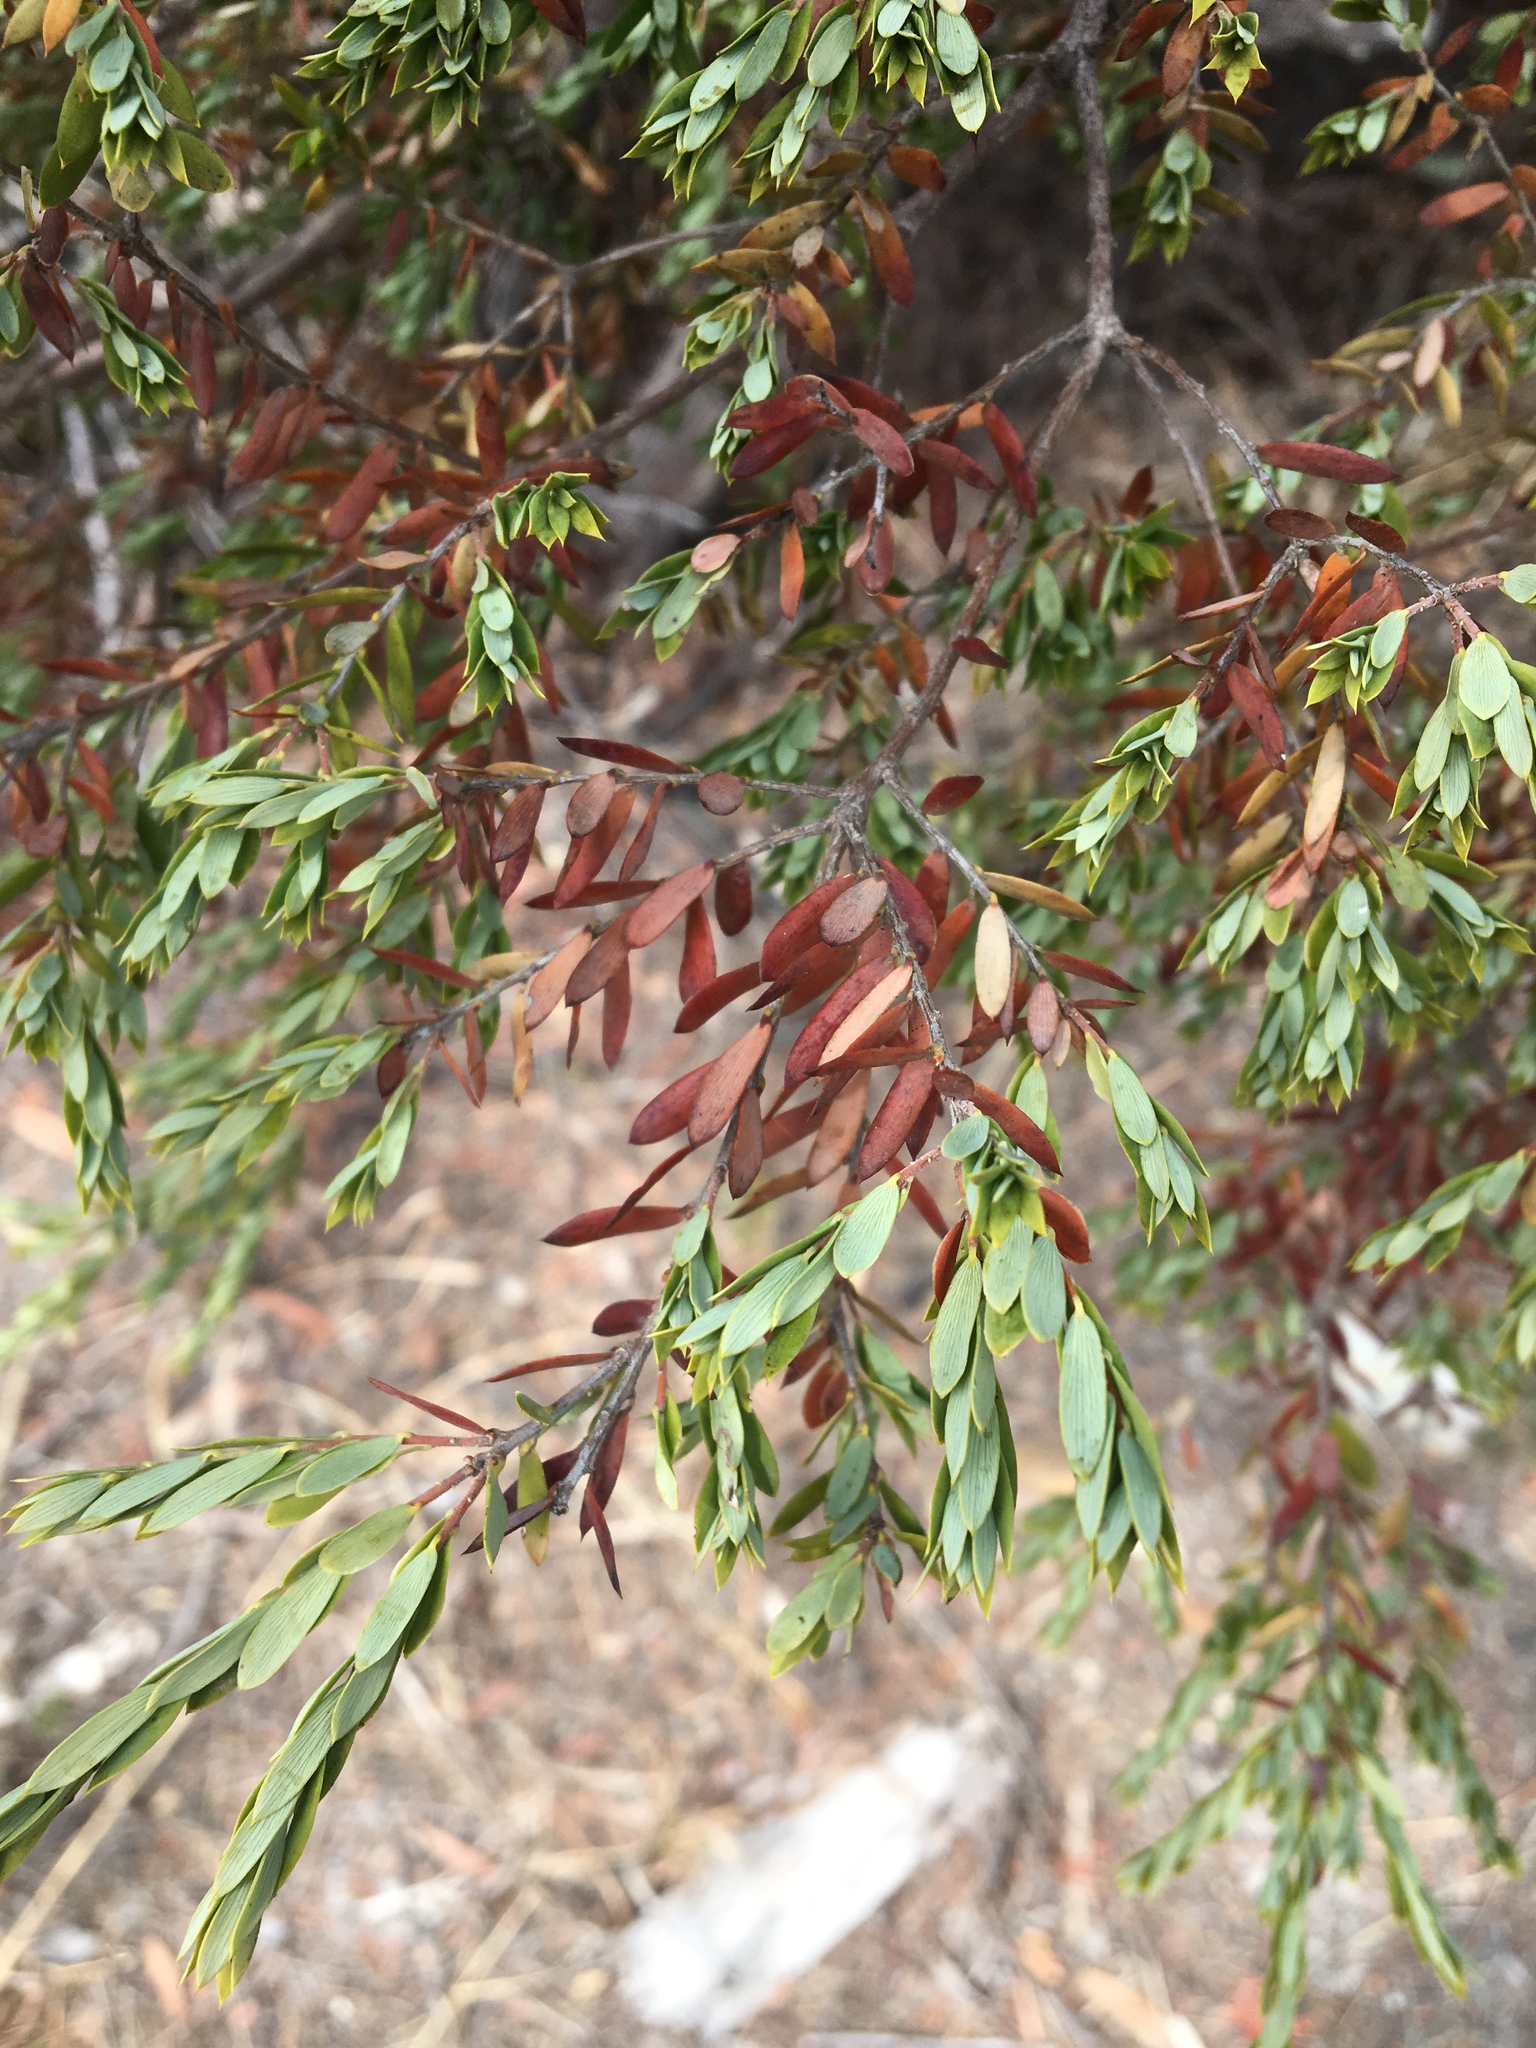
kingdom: Plantae
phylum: Tracheophyta
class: Magnoliopsida
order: Ericales
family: Ericaceae
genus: Monotoca
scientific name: Monotoca elliptica
